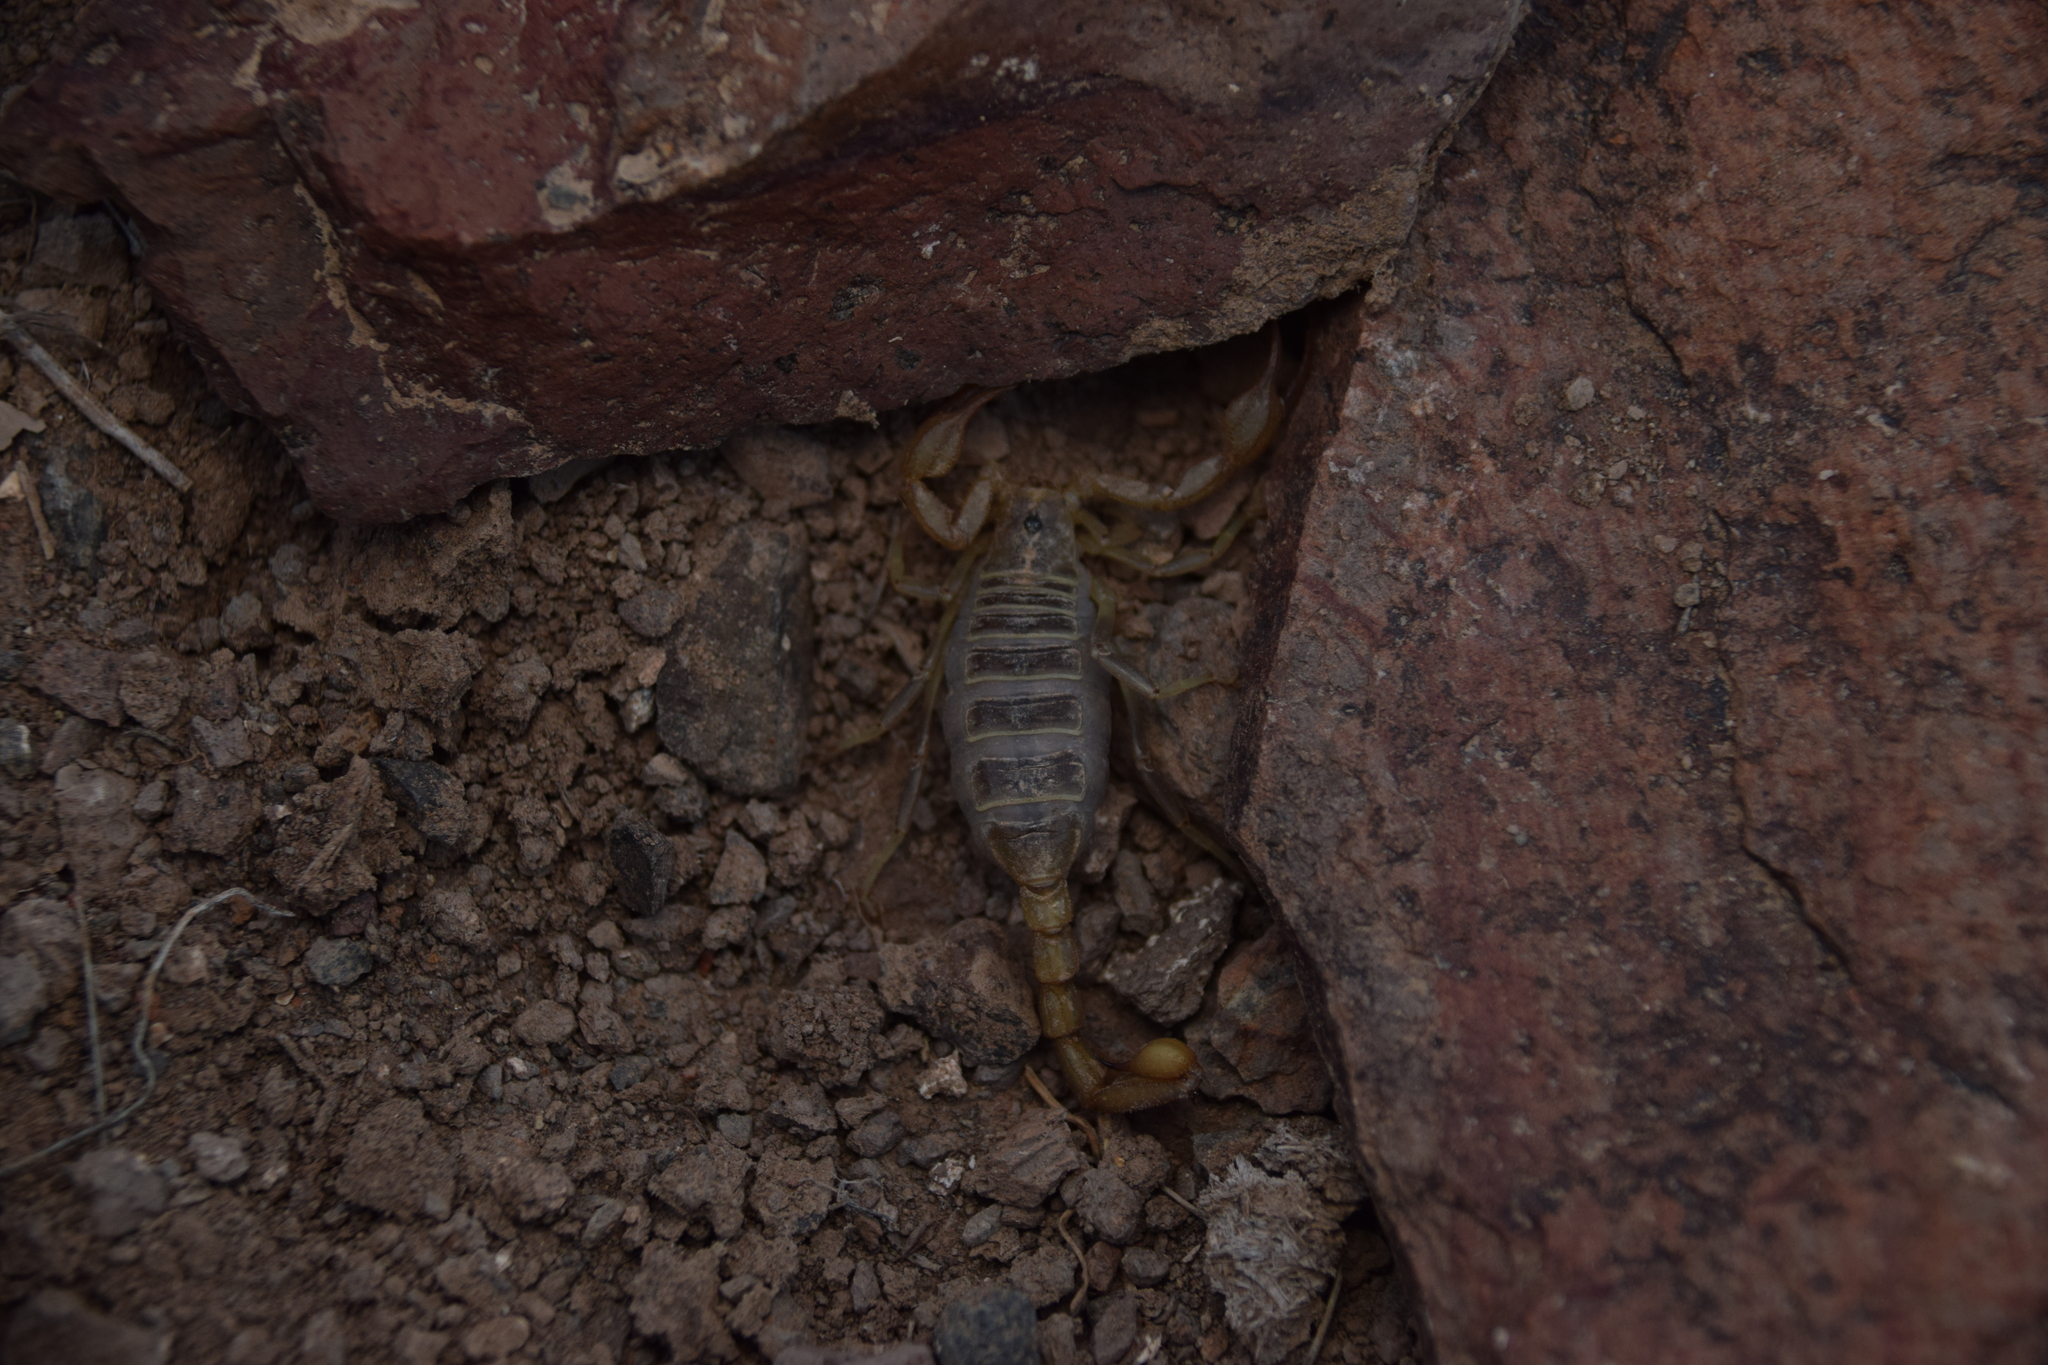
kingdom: Animalia
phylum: Arthropoda
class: Arachnida
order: Scorpiones
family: Vaejovidae
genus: Paruroctonus
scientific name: Paruroctonus boreus
